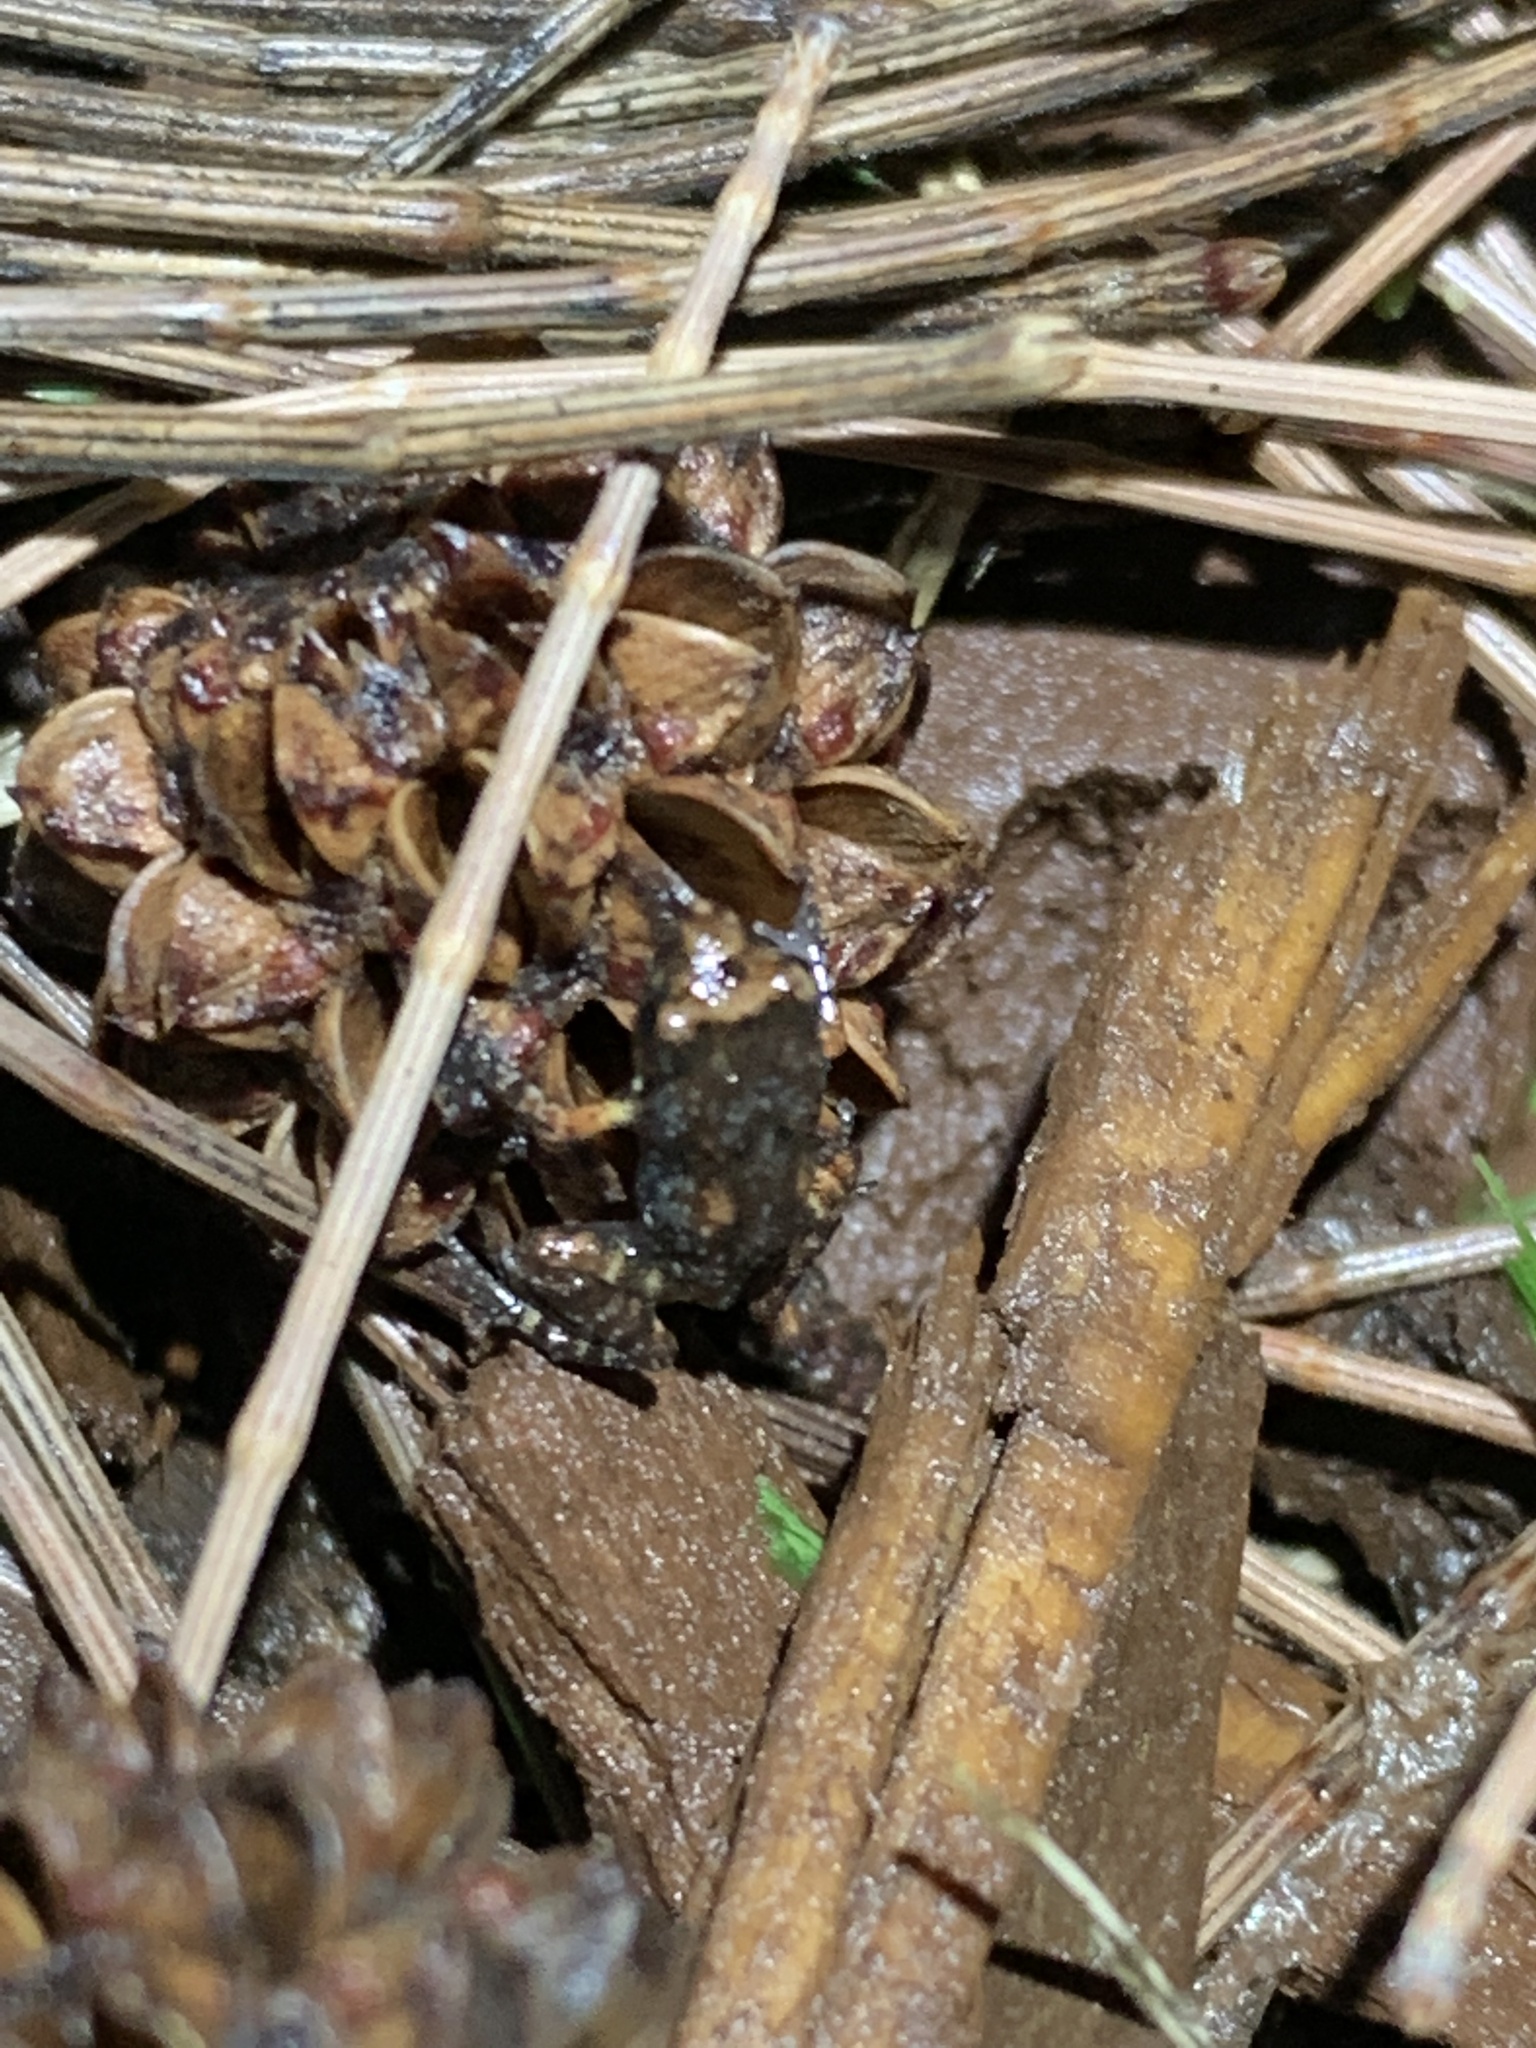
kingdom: Animalia
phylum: Chordata
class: Amphibia
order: Anura
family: Eleutherodactylidae
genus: Eleutherodactylus
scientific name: Eleutherodactylus planirostris
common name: Greenhouse frog
